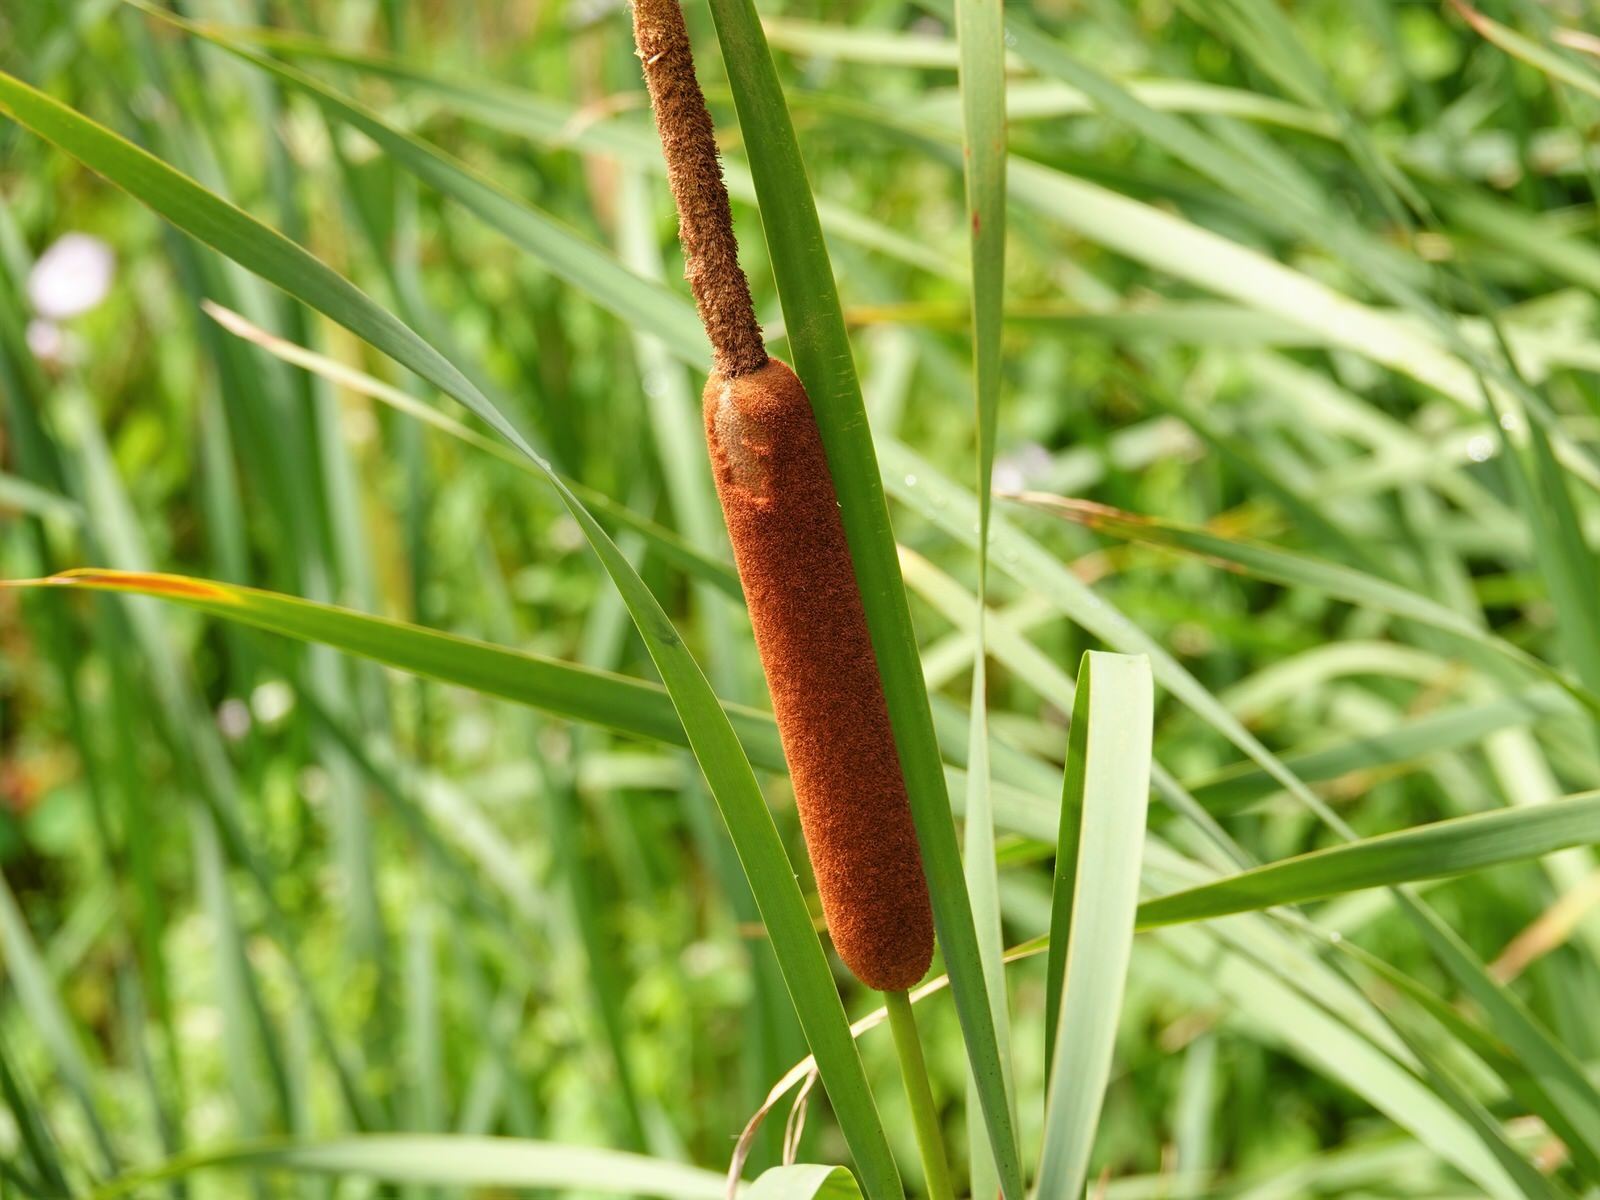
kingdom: Plantae
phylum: Tracheophyta
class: Liliopsida
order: Poales
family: Typhaceae
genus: Typha
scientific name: Typha orientalis
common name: Bullrush
